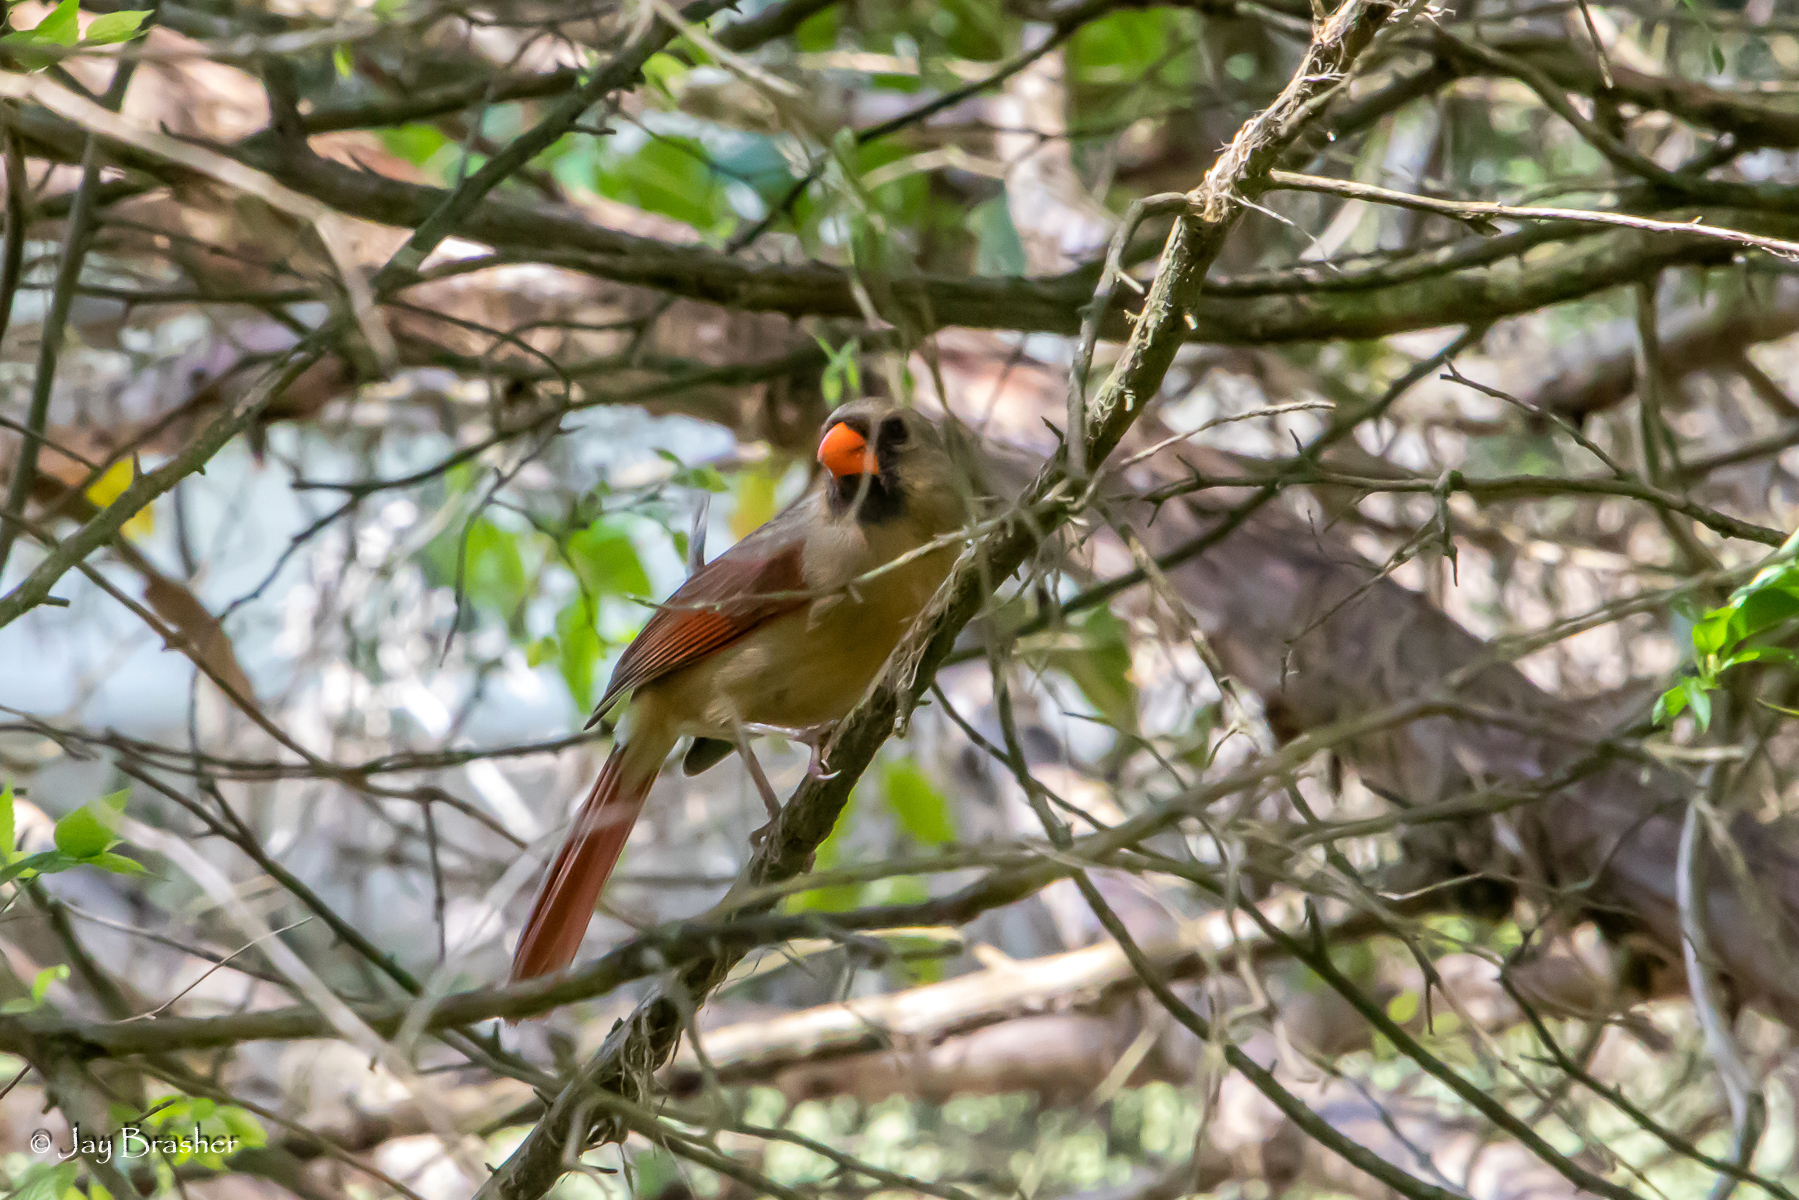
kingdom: Animalia
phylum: Chordata
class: Aves
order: Passeriformes
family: Cardinalidae
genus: Cardinalis
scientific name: Cardinalis cardinalis
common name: Northern cardinal
